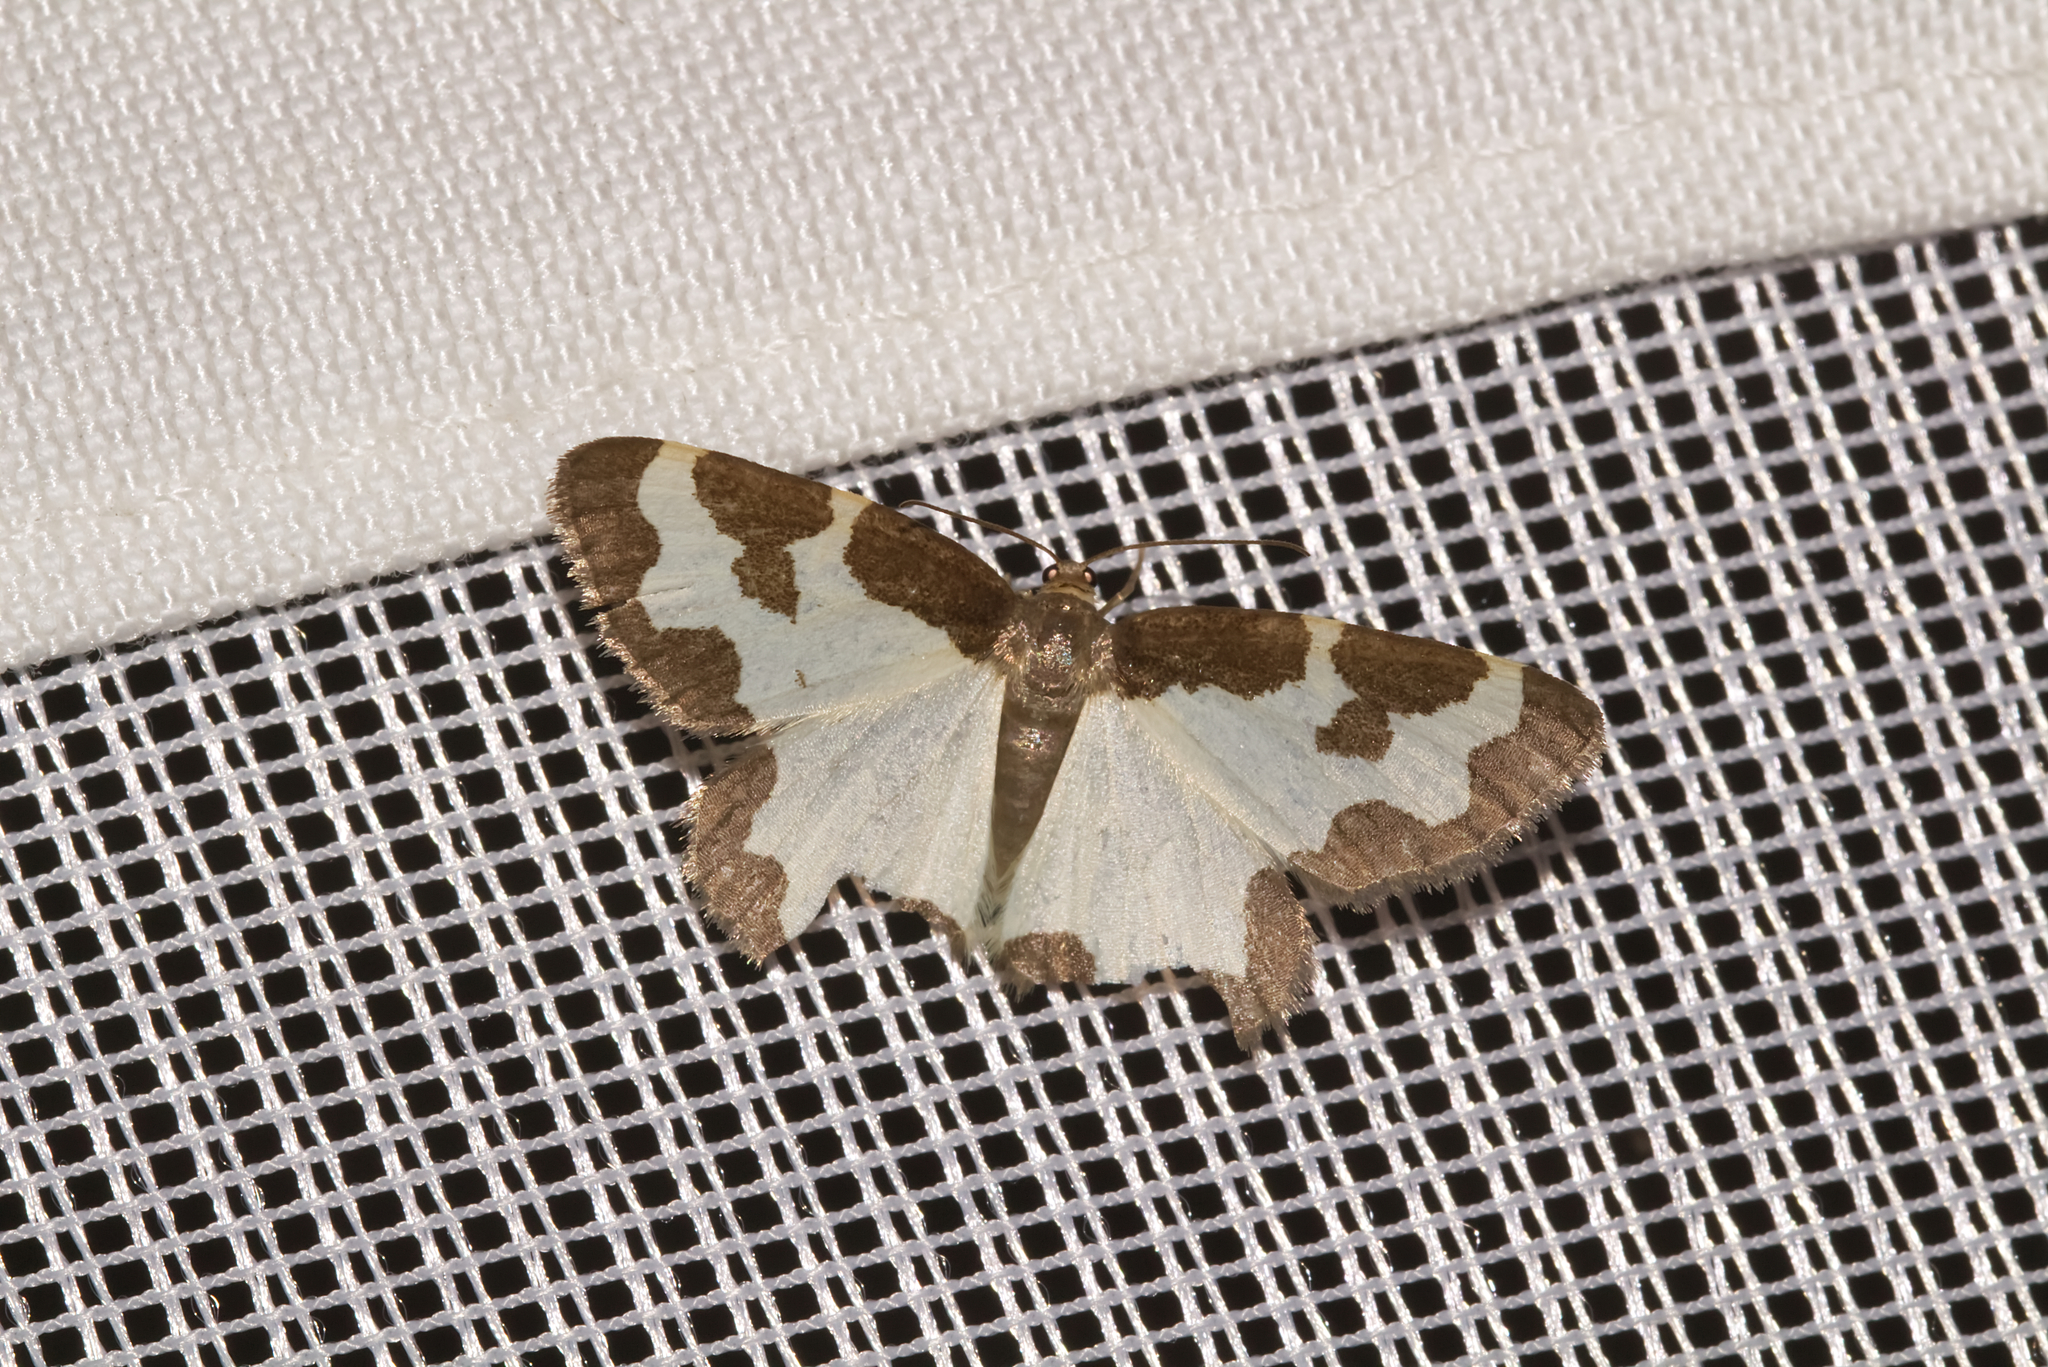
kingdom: Animalia
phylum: Arthropoda
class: Insecta
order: Lepidoptera
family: Geometridae
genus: Lomaspilis
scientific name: Lomaspilis marginata
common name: Clouded border
